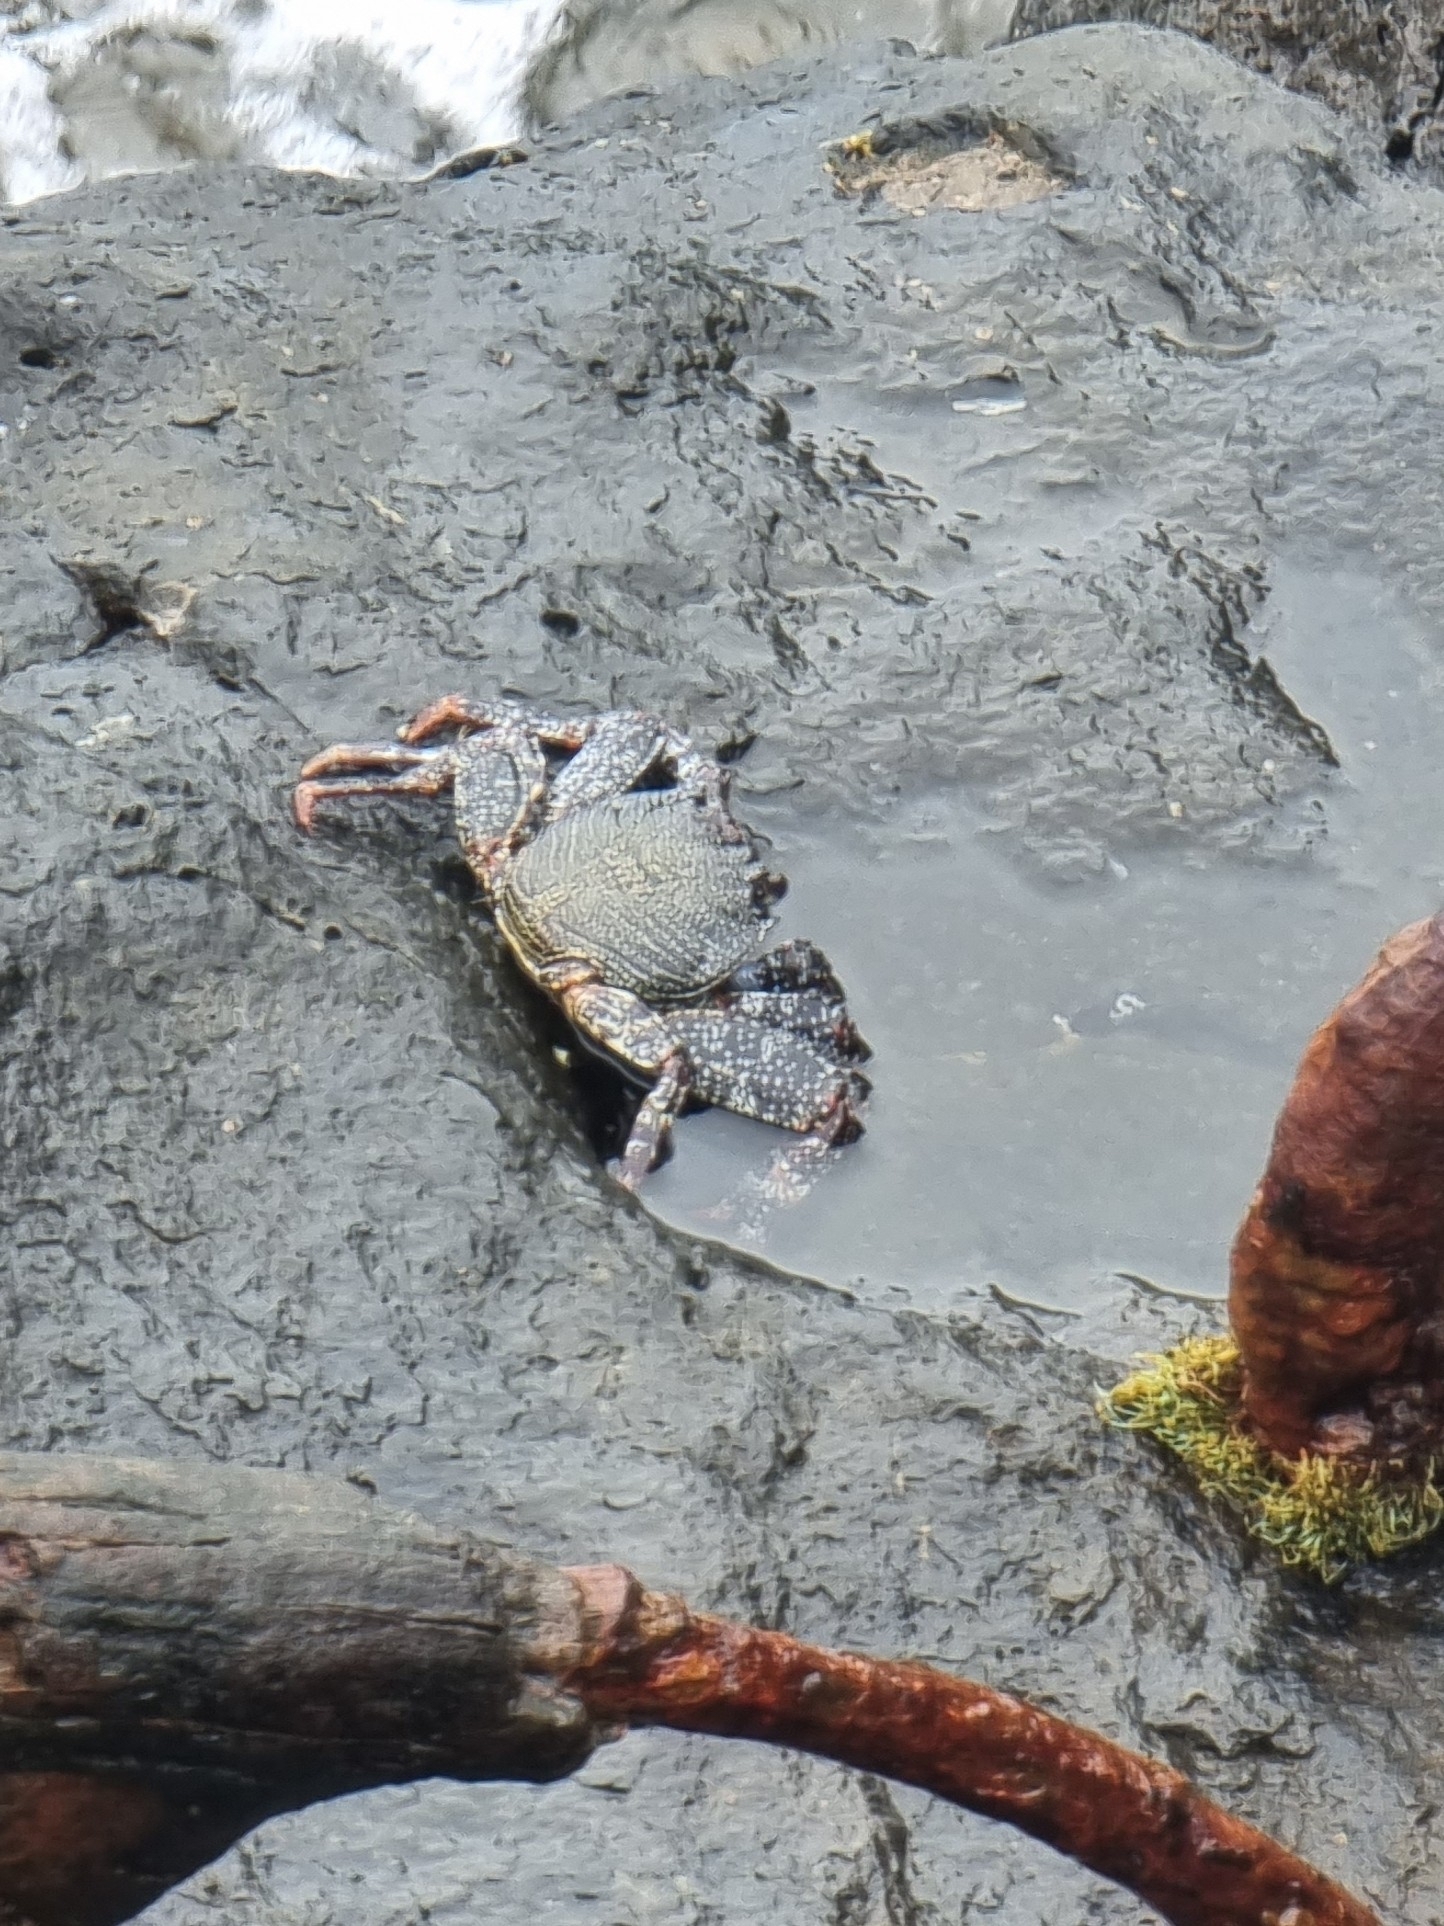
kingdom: Animalia
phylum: Arthropoda
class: Malacostraca
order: Decapoda
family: Grapsidae
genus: Grapsus
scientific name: Grapsus adscensionis
